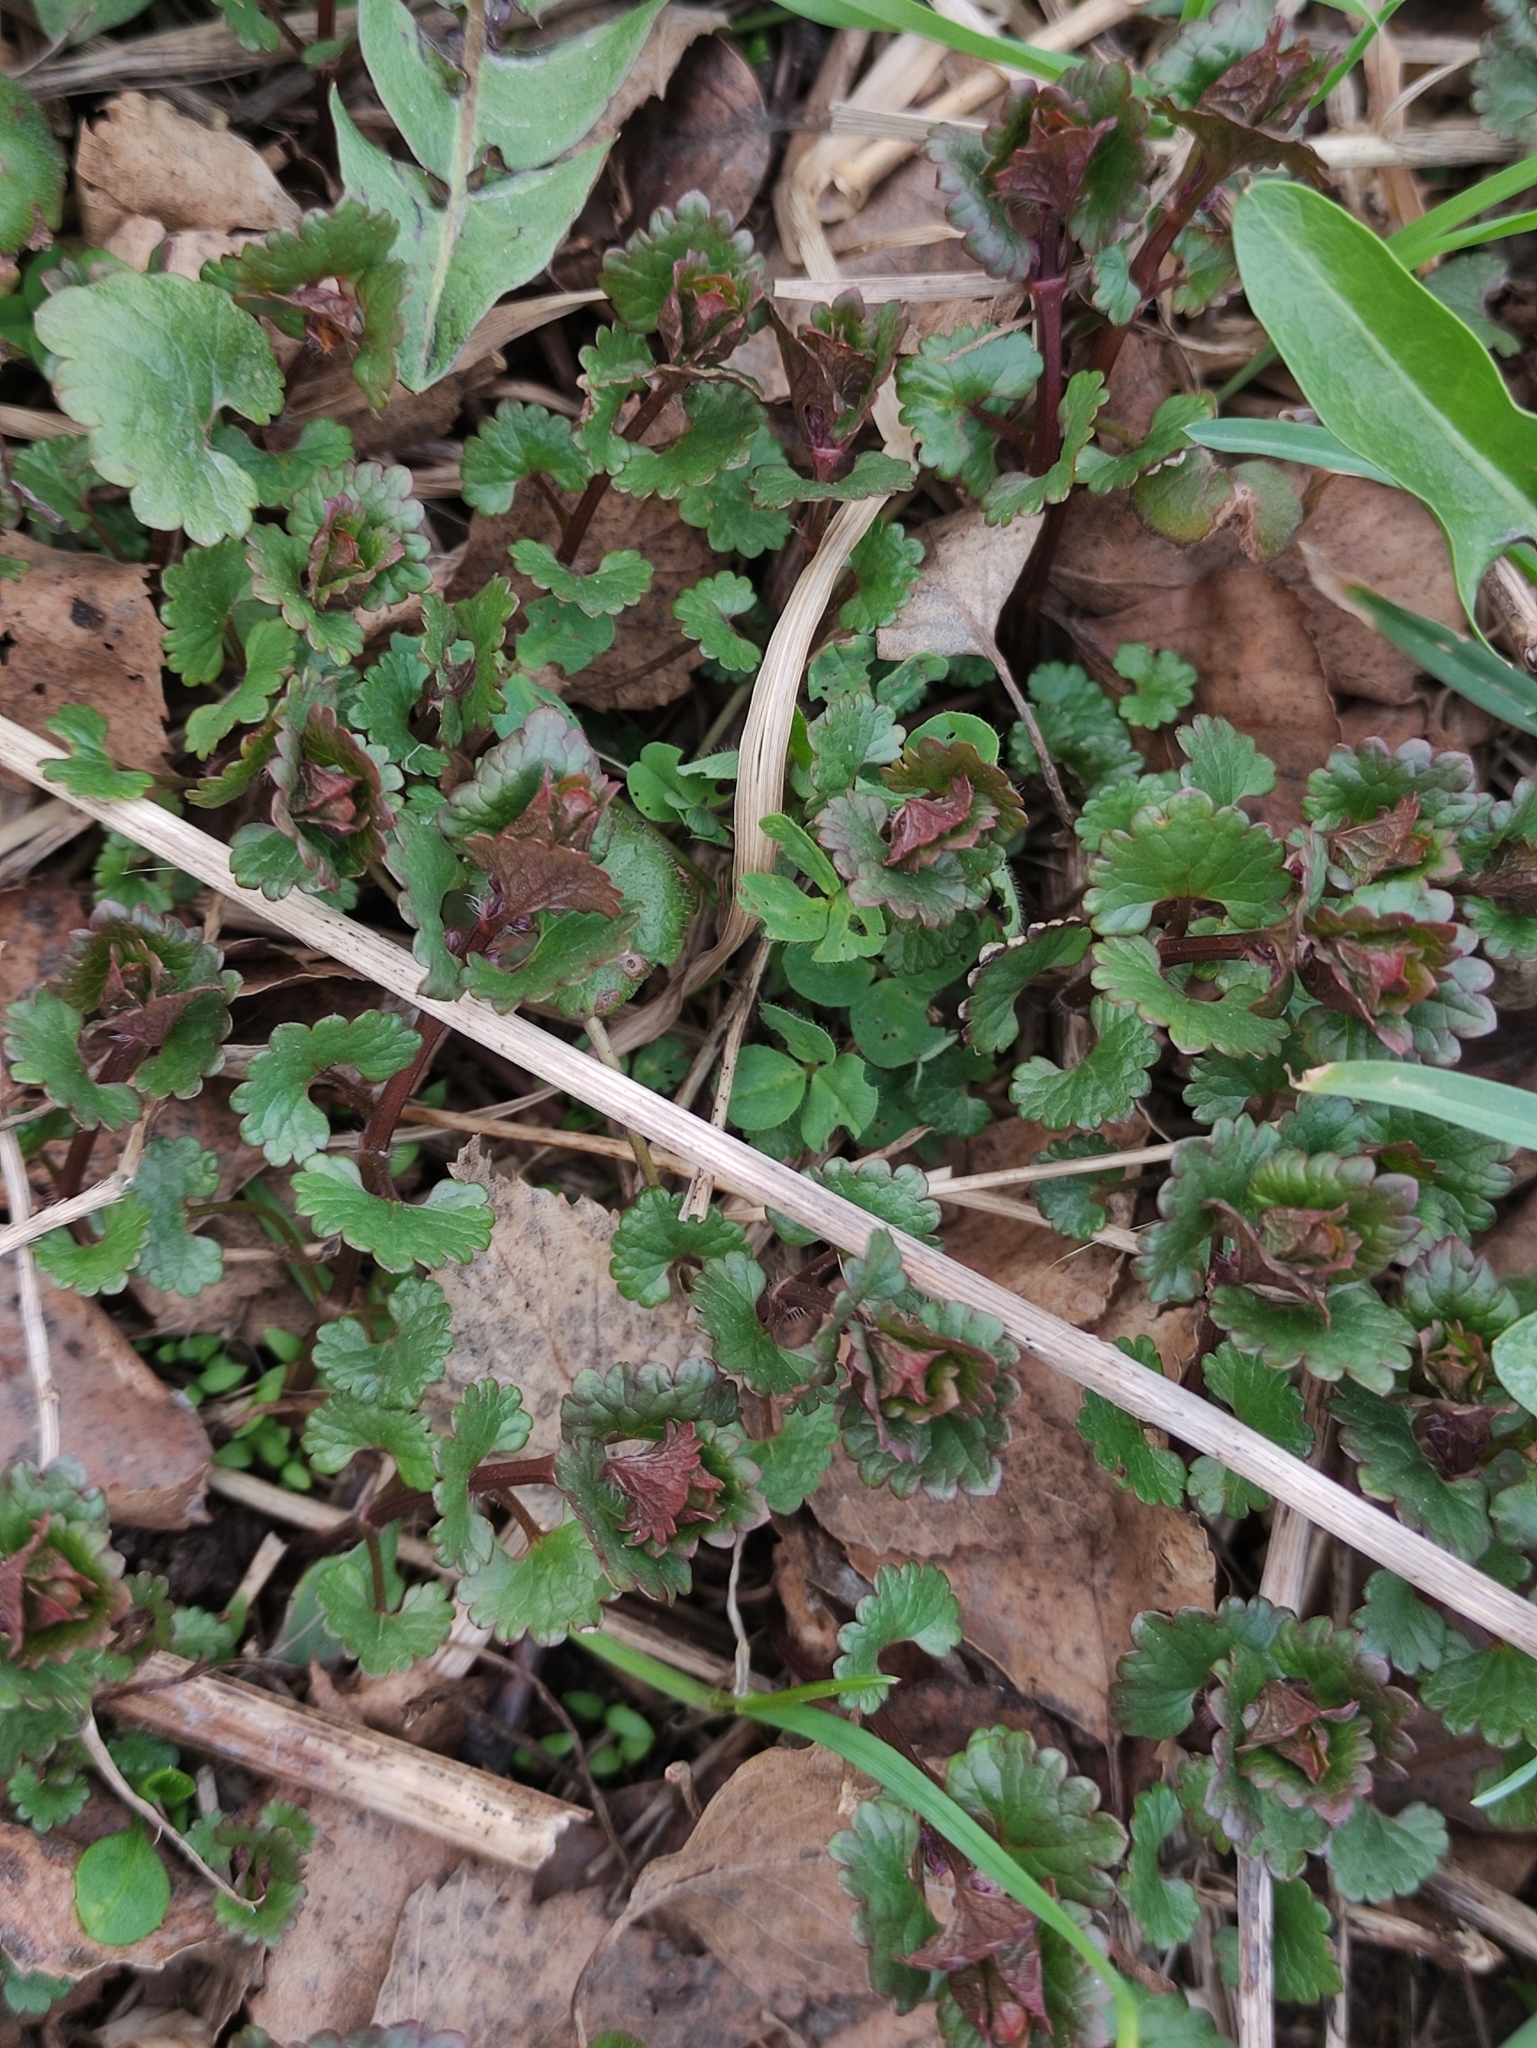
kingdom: Plantae
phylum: Tracheophyta
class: Magnoliopsida
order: Lamiales
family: Lamiaceae
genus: Glechoma
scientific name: Glechoma hederacea
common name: Ground ivy
